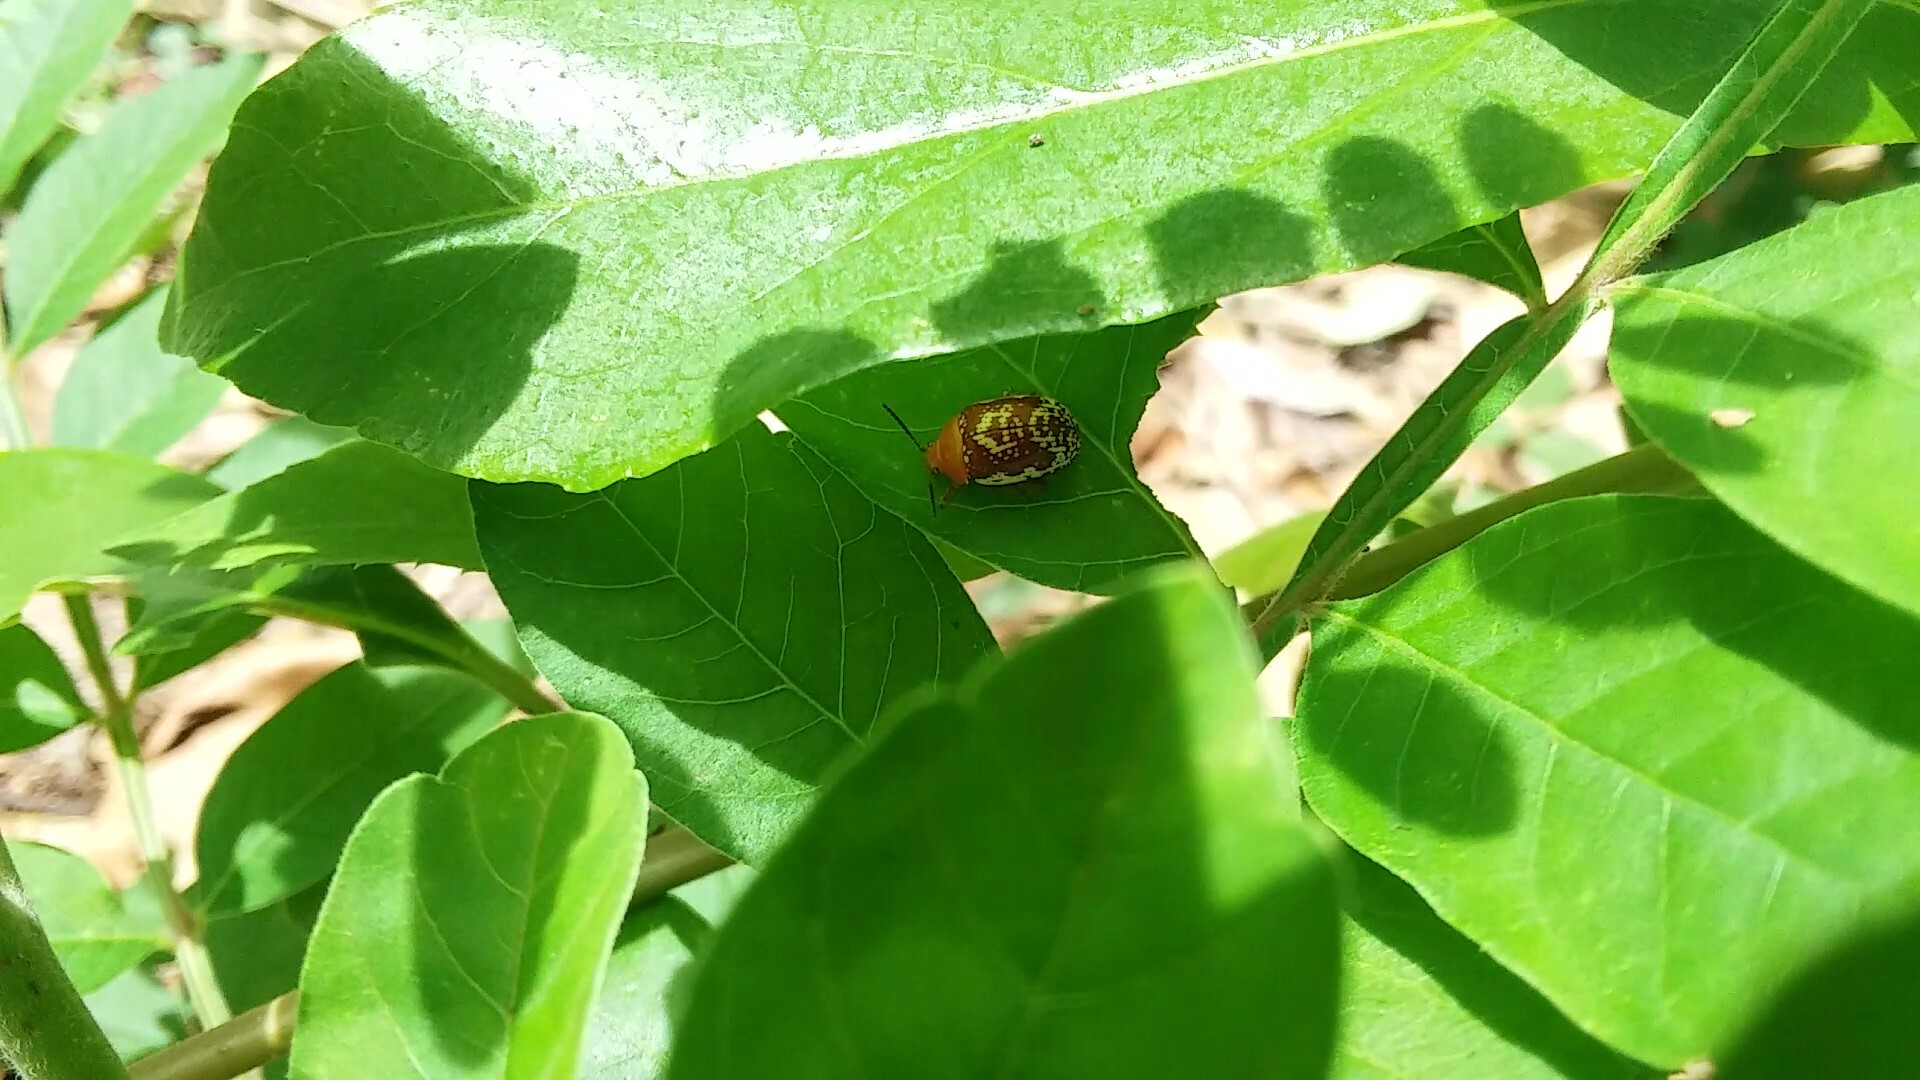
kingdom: Animalia
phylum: Arthropoda
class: Insecta
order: Coleoptera
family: Chrysomelidae
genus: Blepharida
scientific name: Blepharida rhois
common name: Sumac flea beetle
